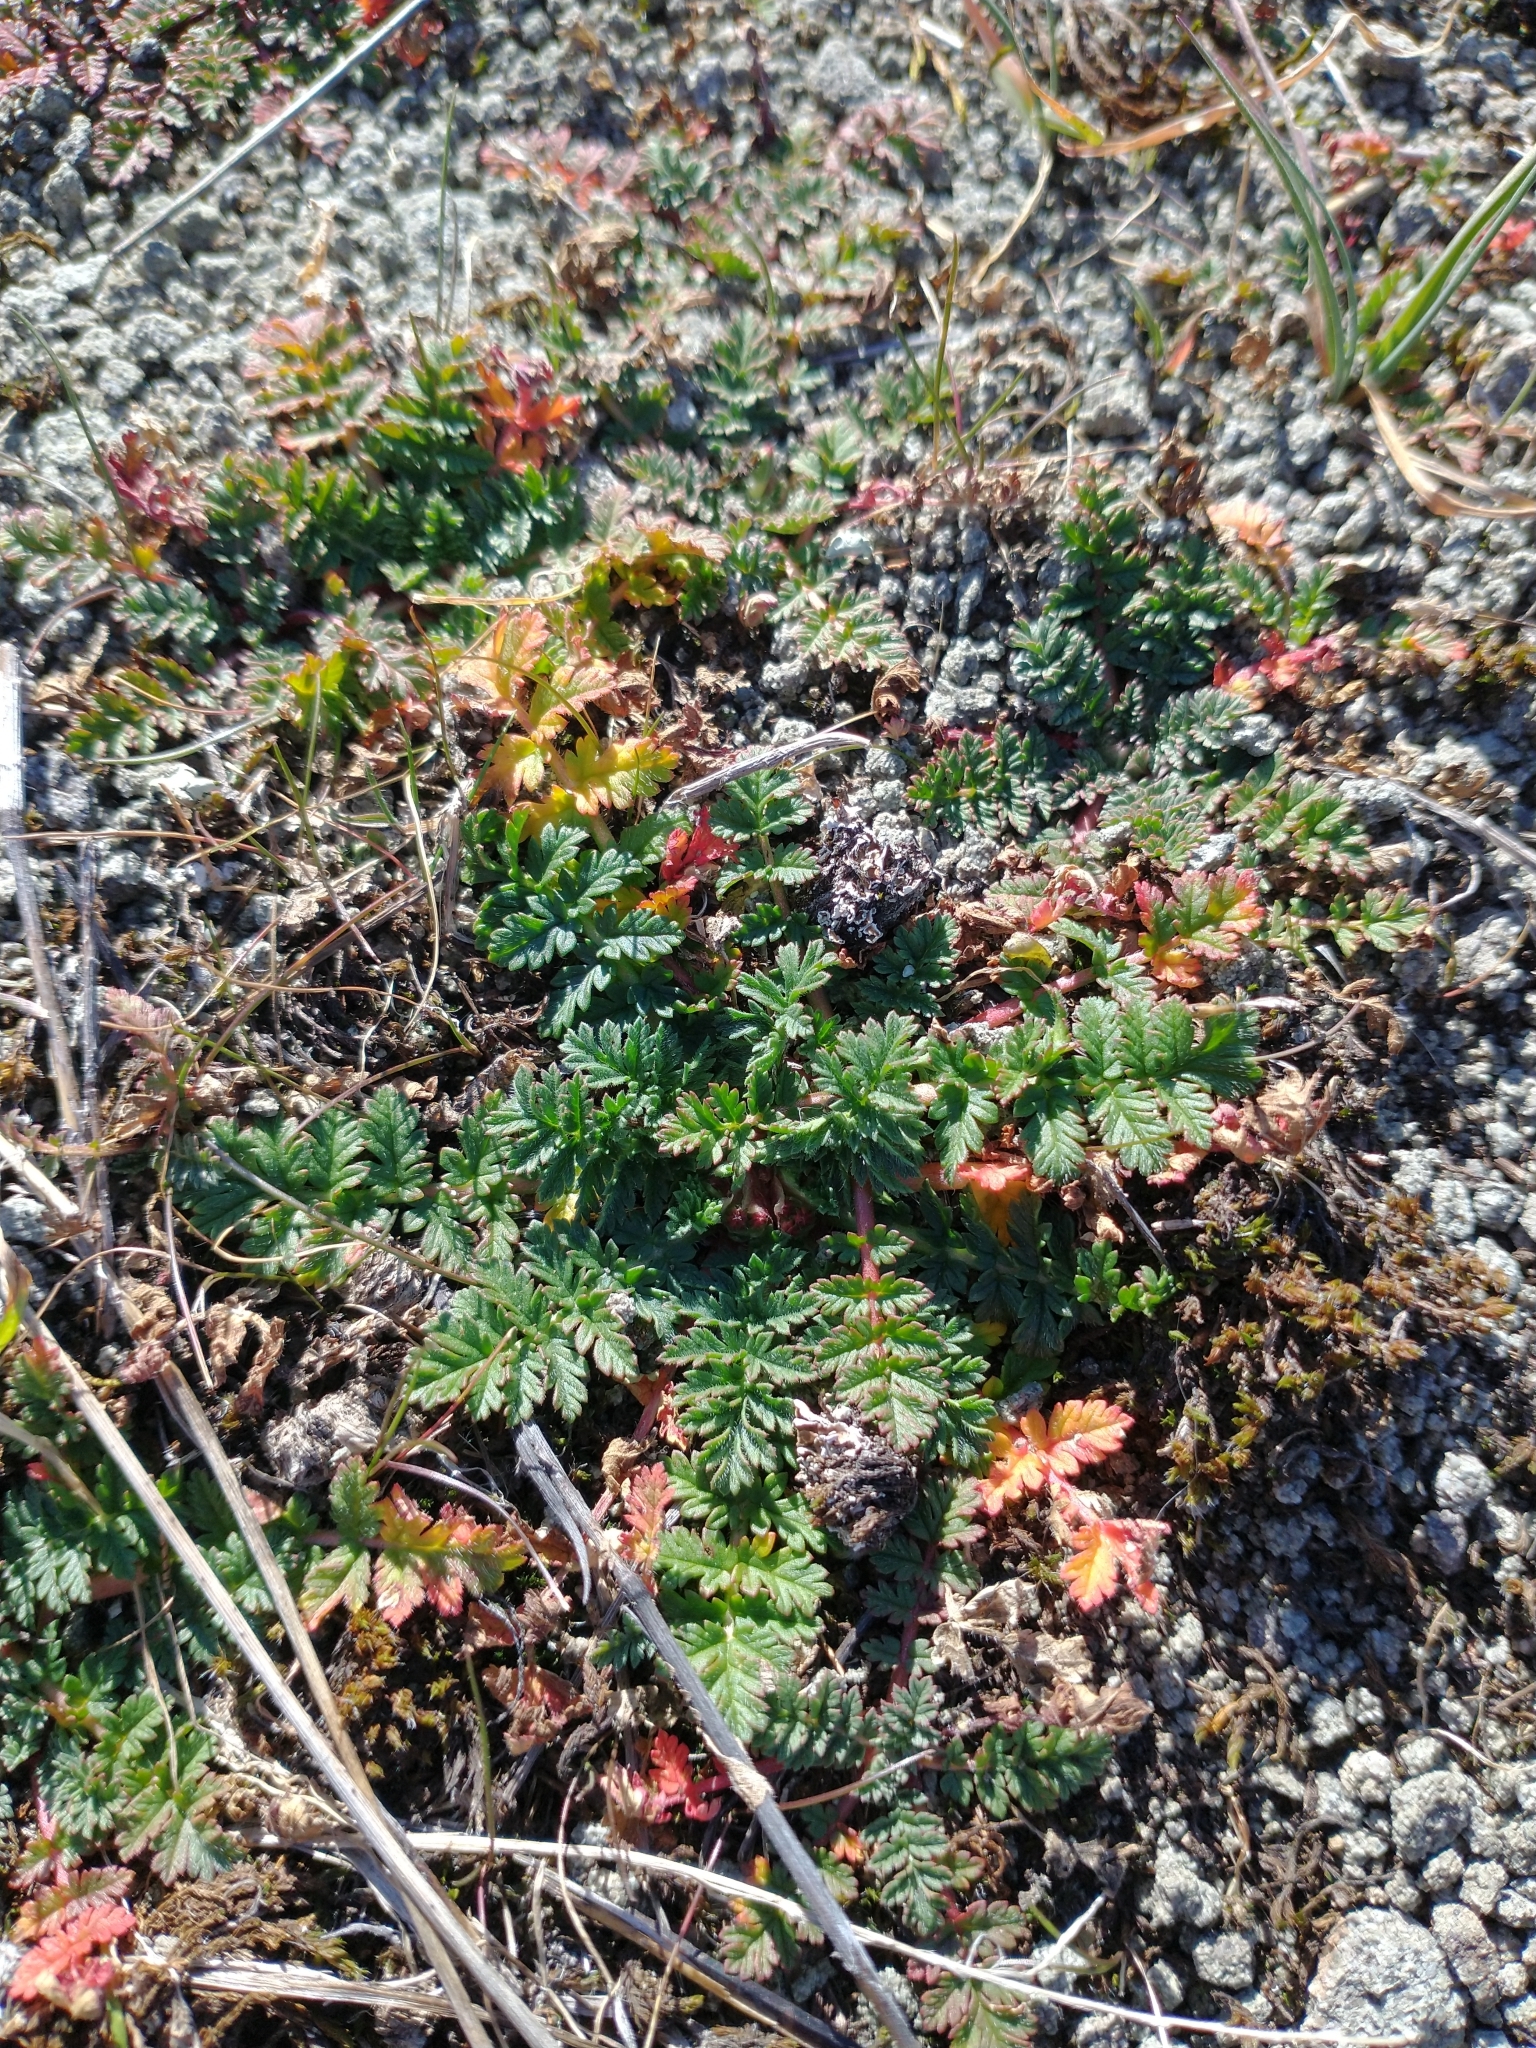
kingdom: Plantae
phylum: Tracheophyta
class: Magnoliopsida
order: Geraniales
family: Geraniaceae
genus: Erodium
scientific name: Erodium cicutarium
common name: Common stork's-bill
